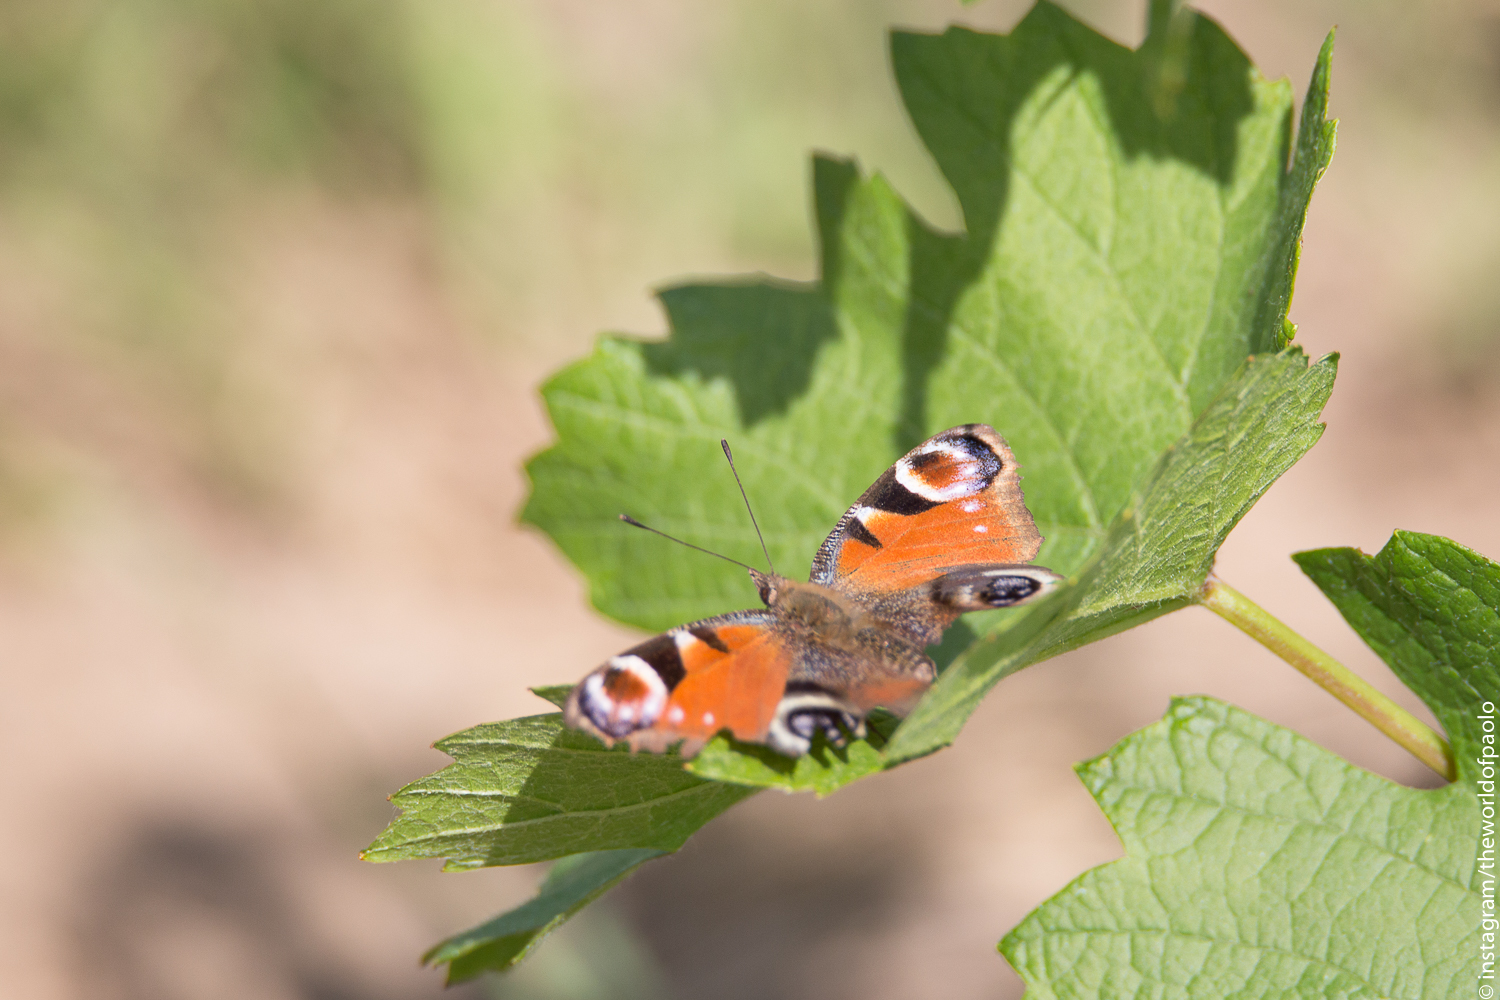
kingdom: Animalia
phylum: Arthropoda
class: Insecta
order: Lepidoptera
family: Nymphalidae
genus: Aglais
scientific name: Aglais io
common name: Peacock
